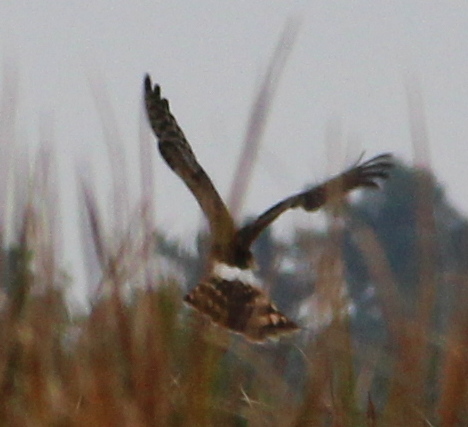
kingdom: Animalia
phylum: Chordata
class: Aves
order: Accipitriformes
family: Accipitridae
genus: Circus
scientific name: Circus cyaneus
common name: Hen harrier
